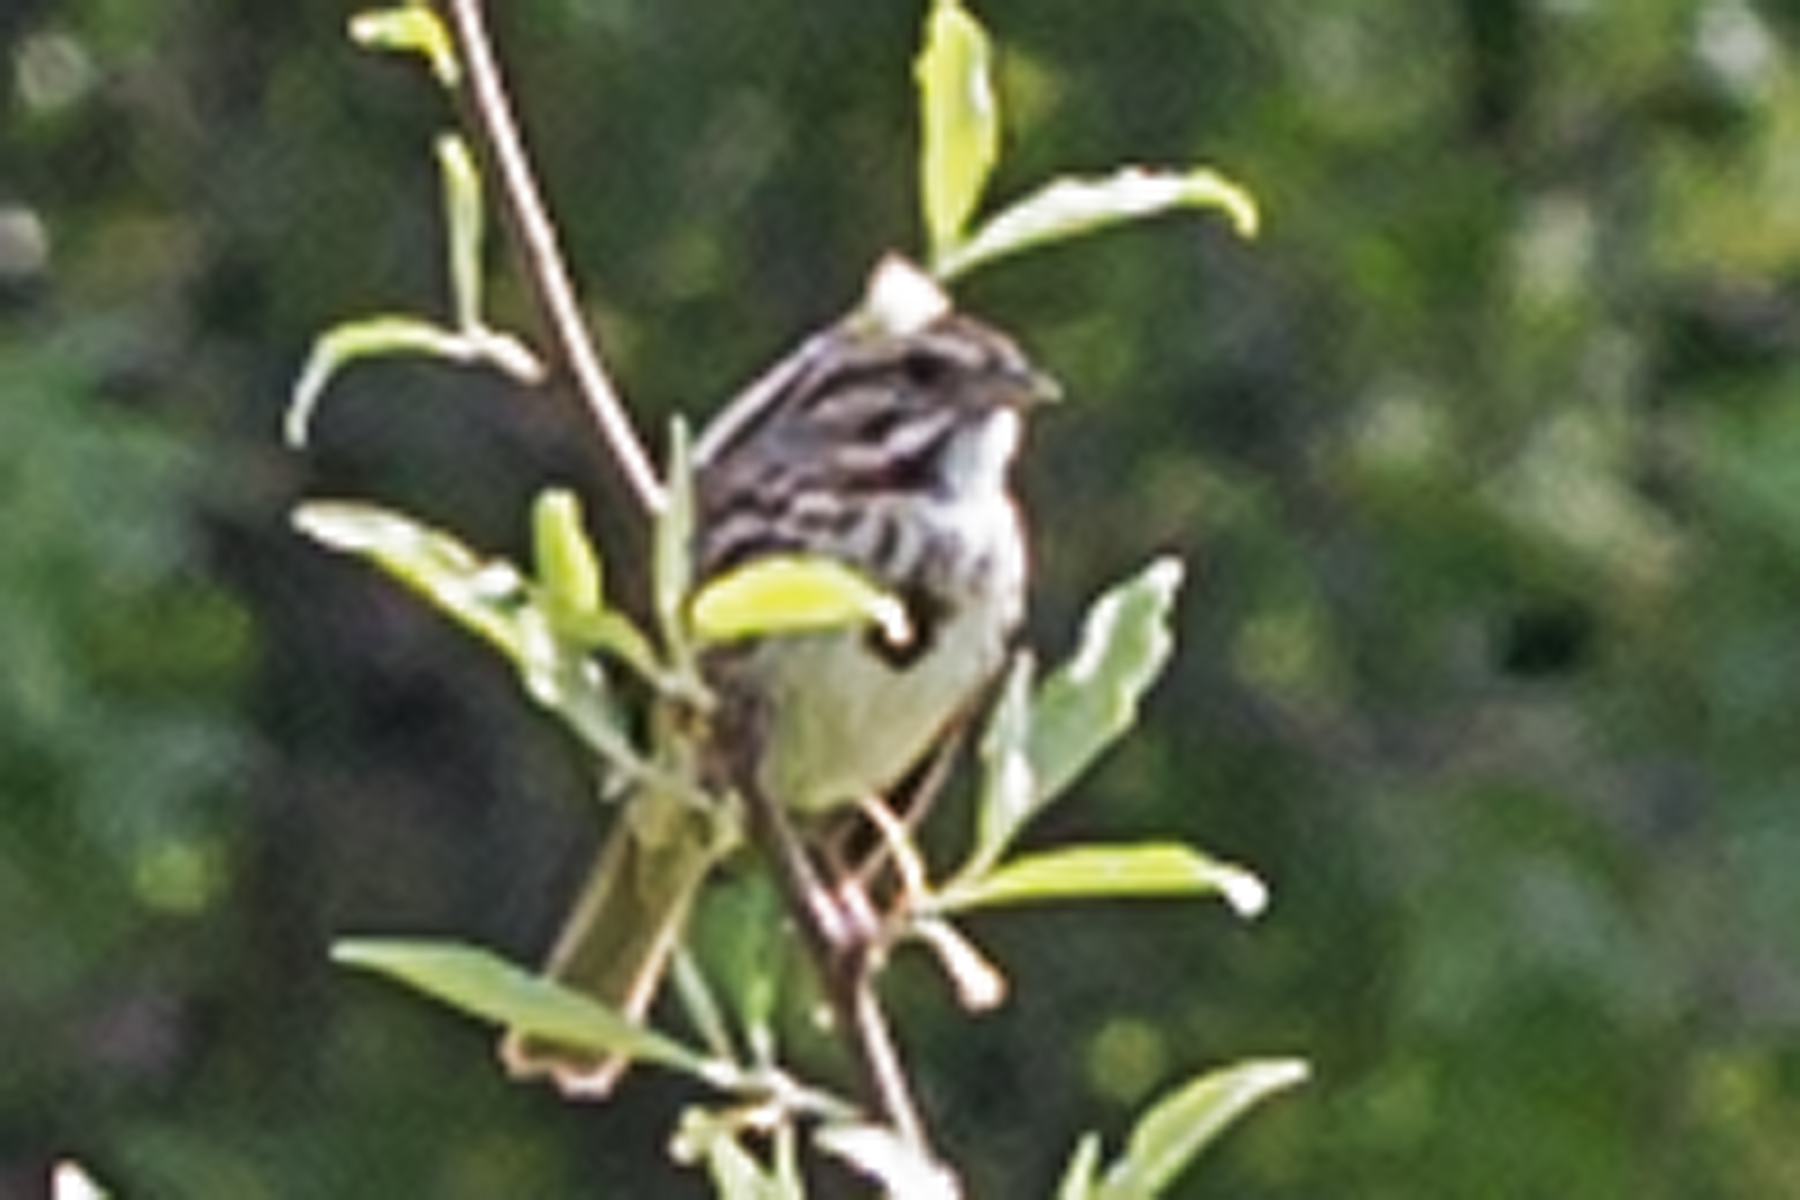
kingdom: Animalia
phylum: Chordata
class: Aves
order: Passeriformes
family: Passerellidae
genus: Melospiza
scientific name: Melospiza melodia
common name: Song sparrow
